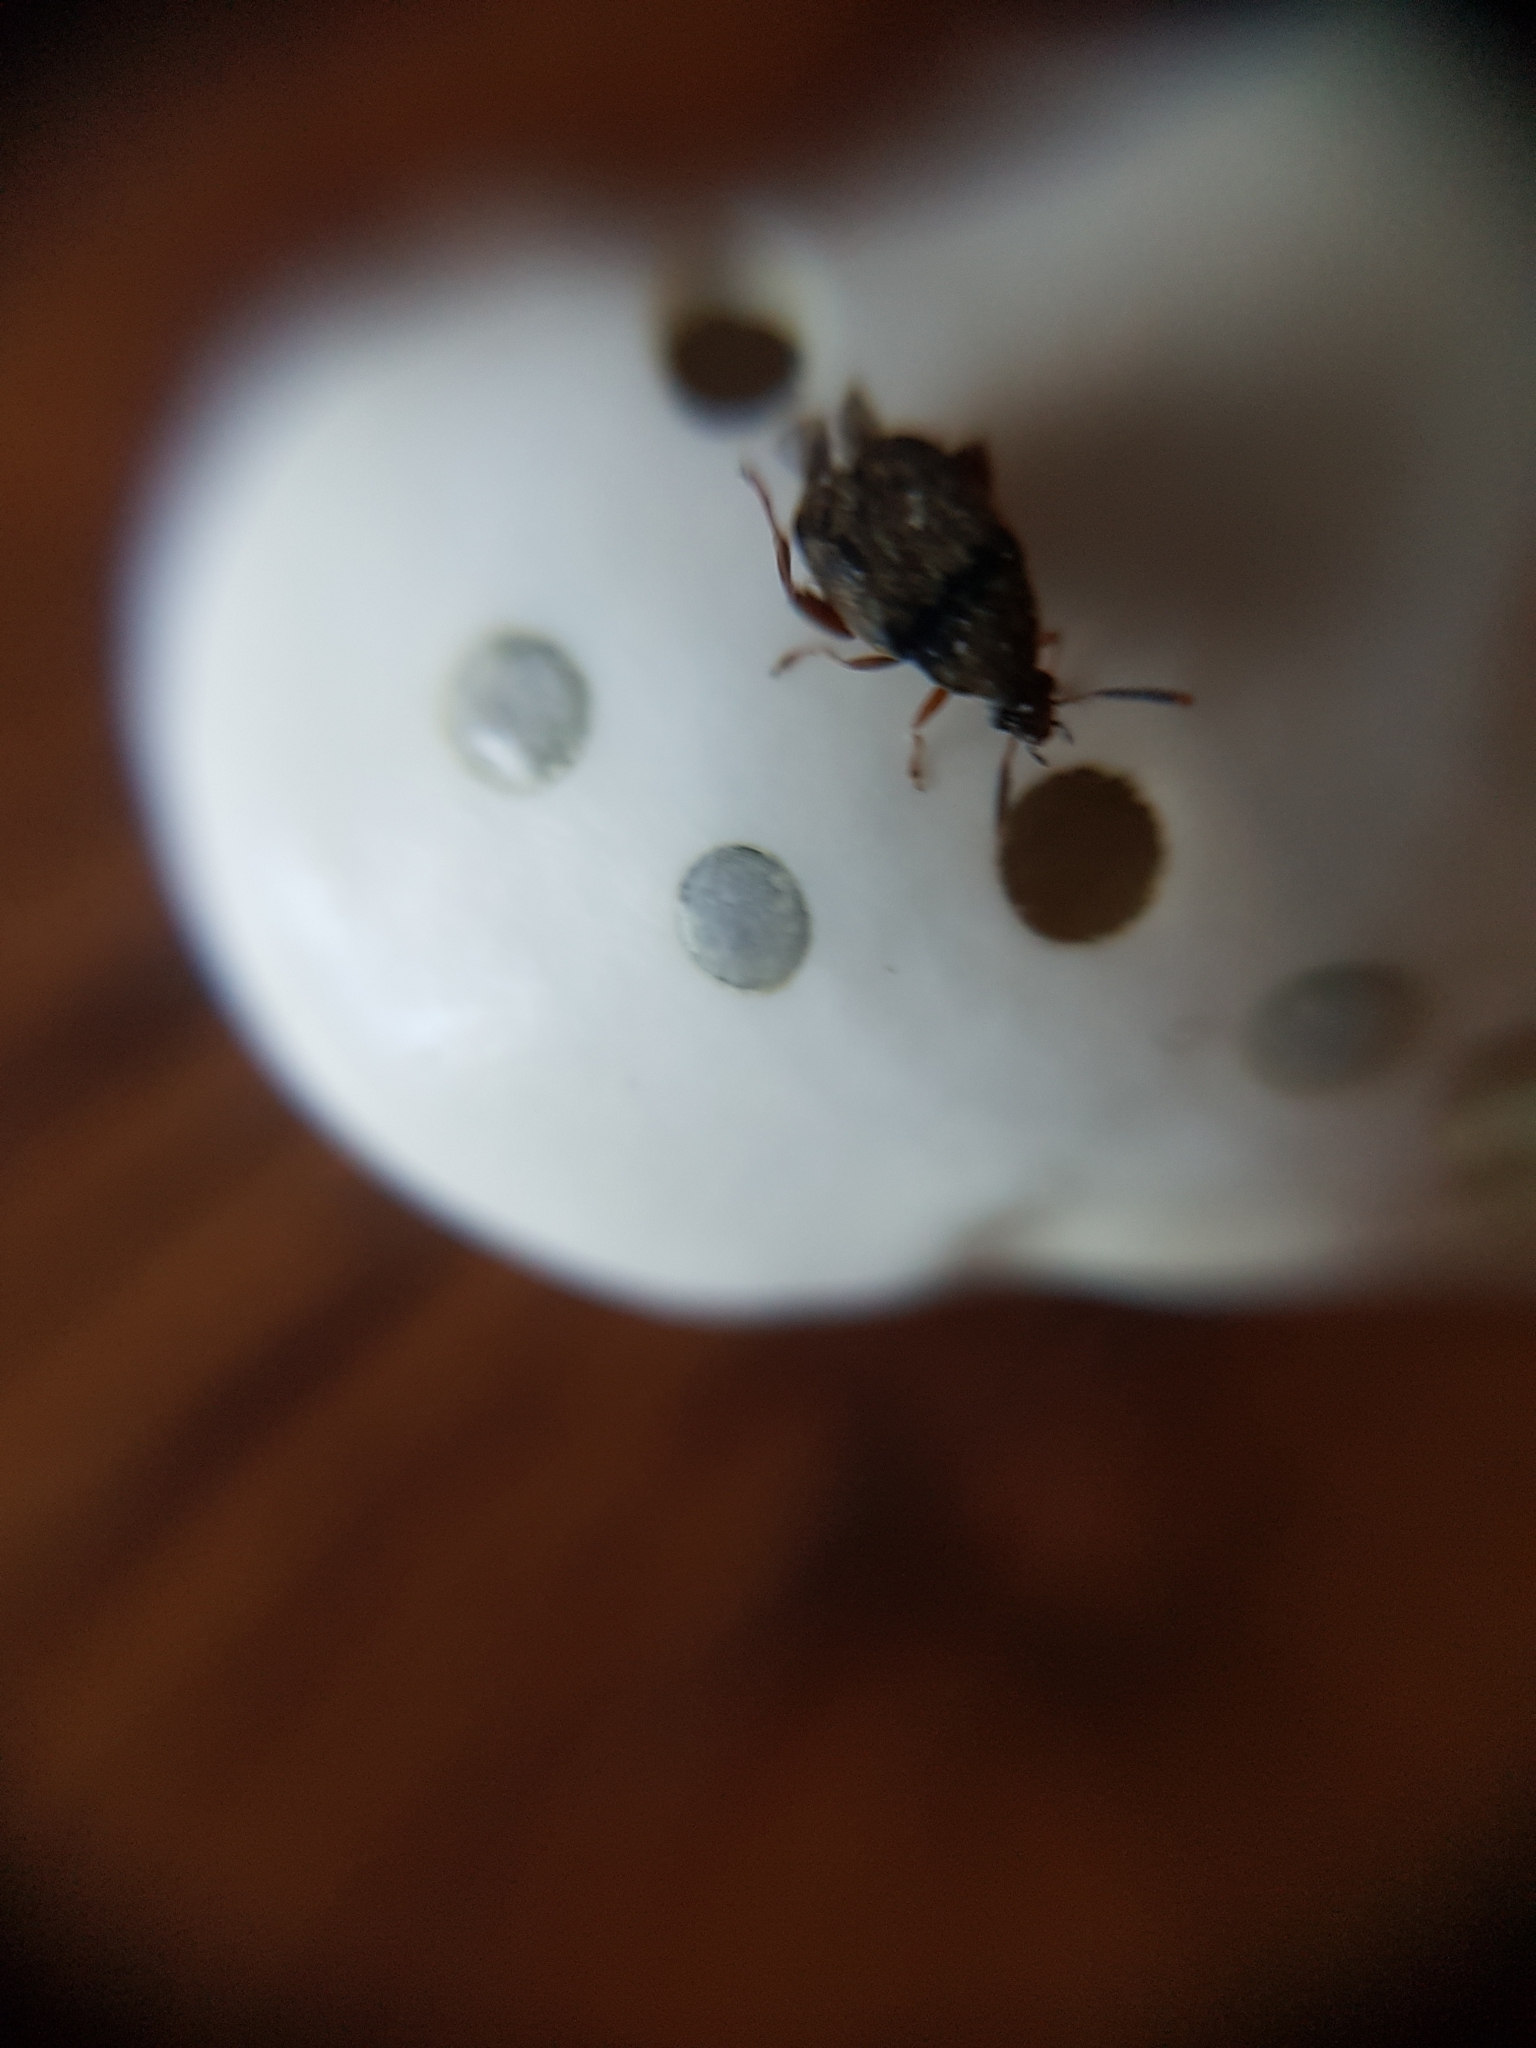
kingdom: Animalia
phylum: Arthropoda
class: Insecta
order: Coleoptera
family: Chrysomelidae
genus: Acanthoscelides
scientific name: Acanthoscelides obtectus
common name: Bean weevil
